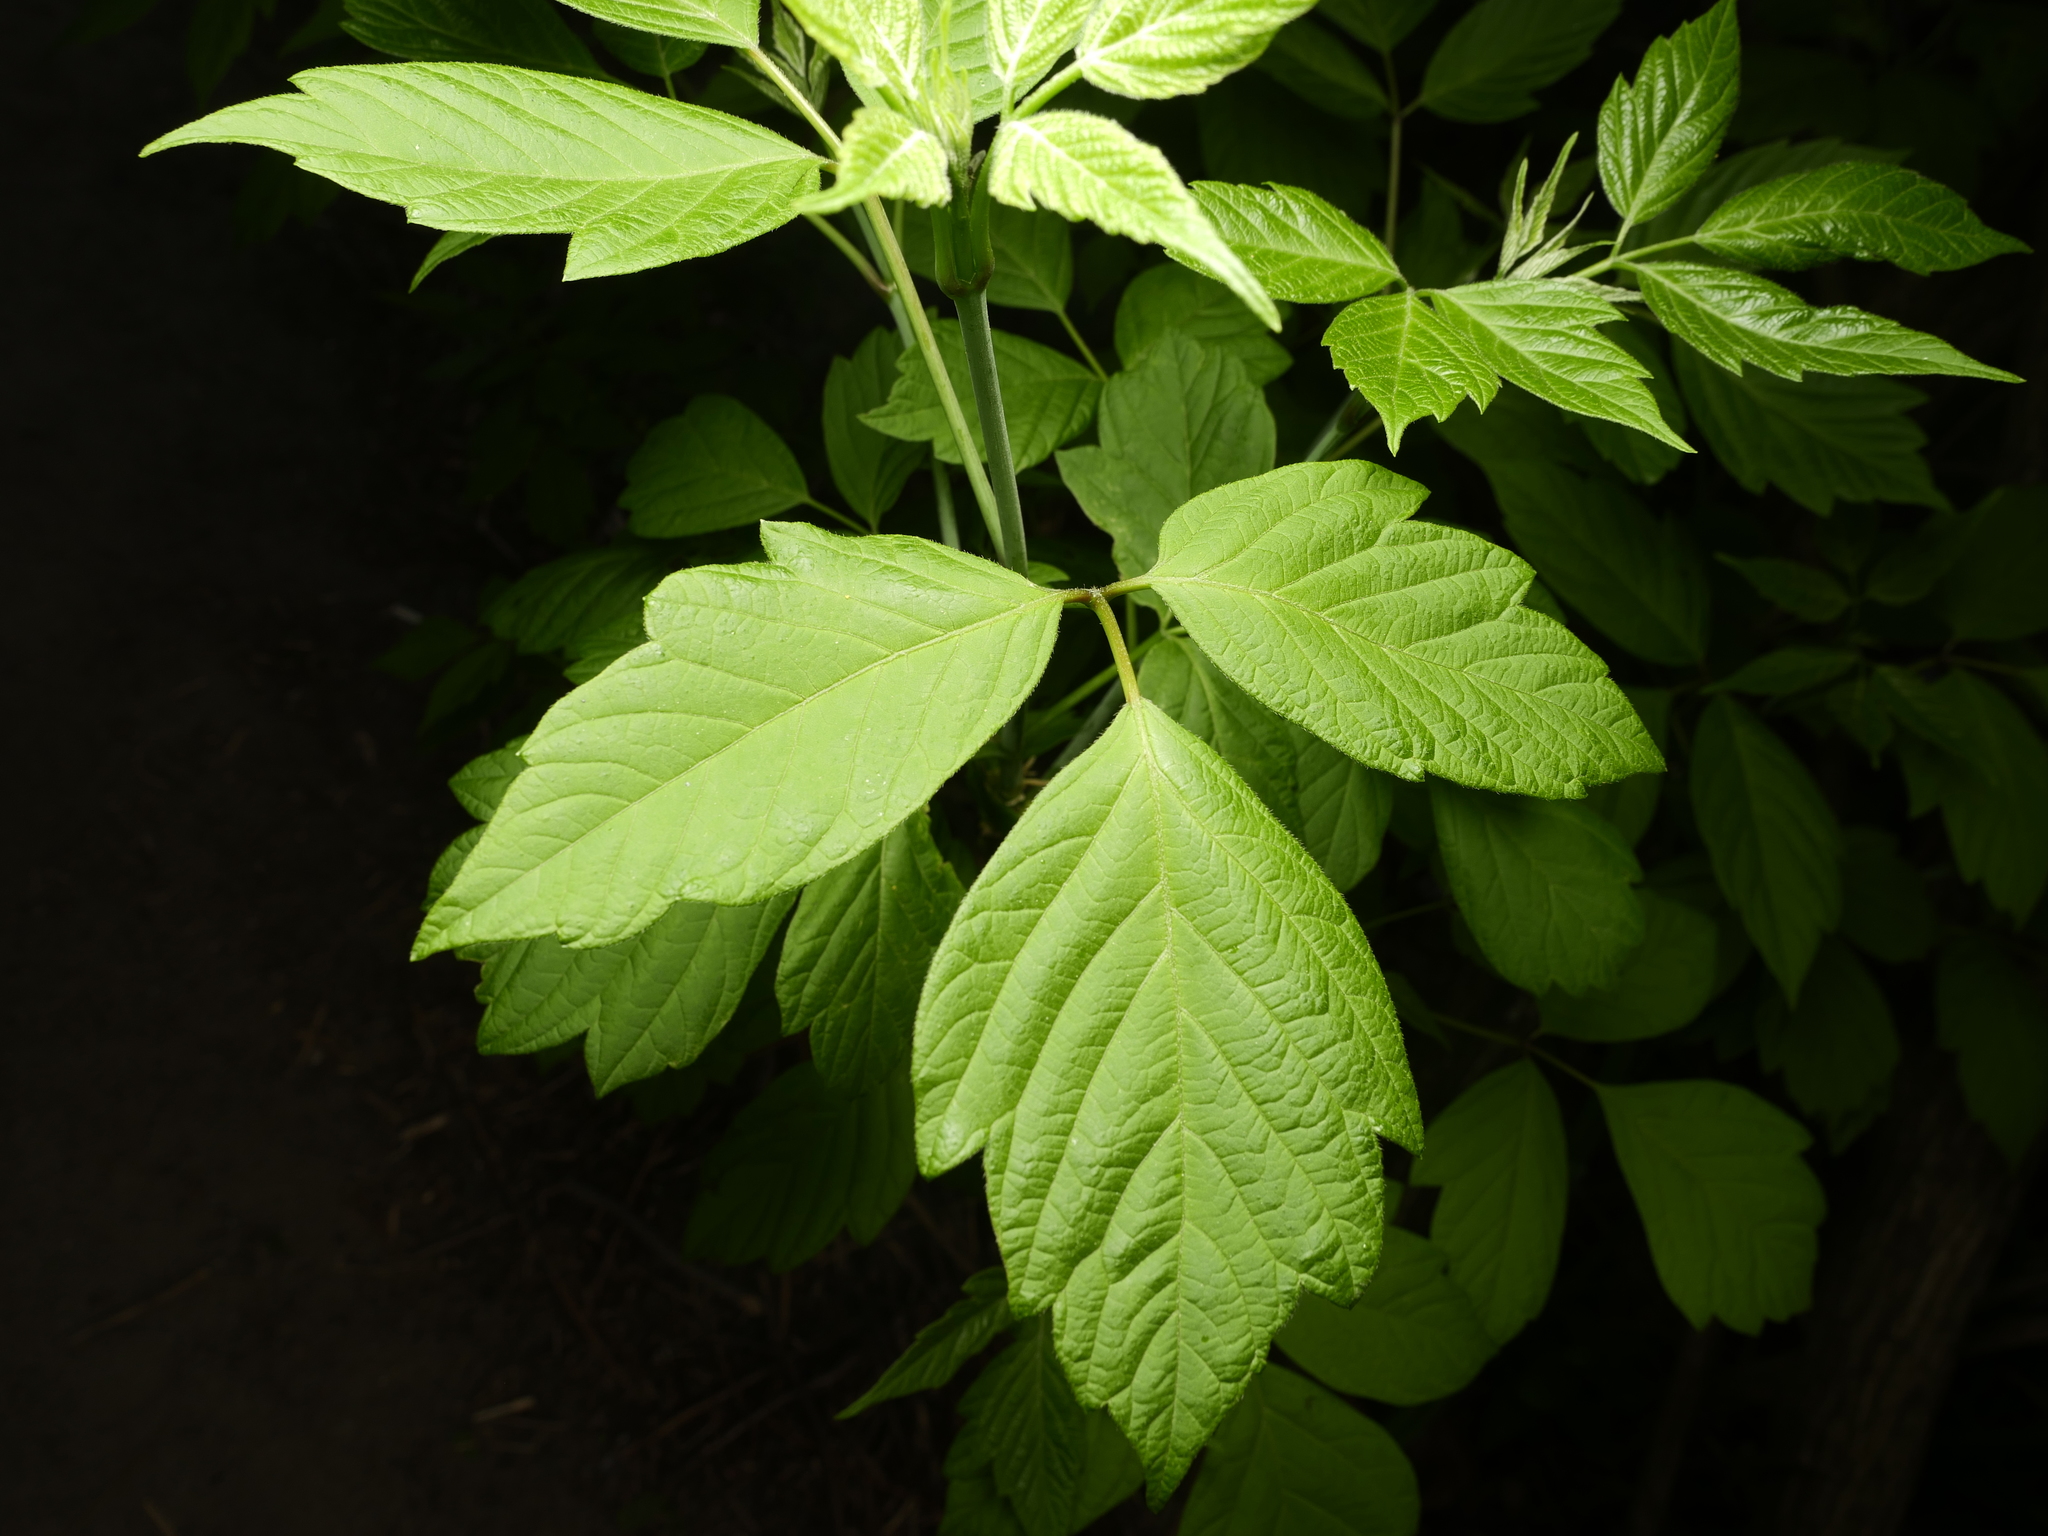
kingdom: Plantae
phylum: Tracheophyta
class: Magnoliopsida
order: Sapindales
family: Sapindaceae
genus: Acer
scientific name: Acer negundo
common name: Ashleaf maple
